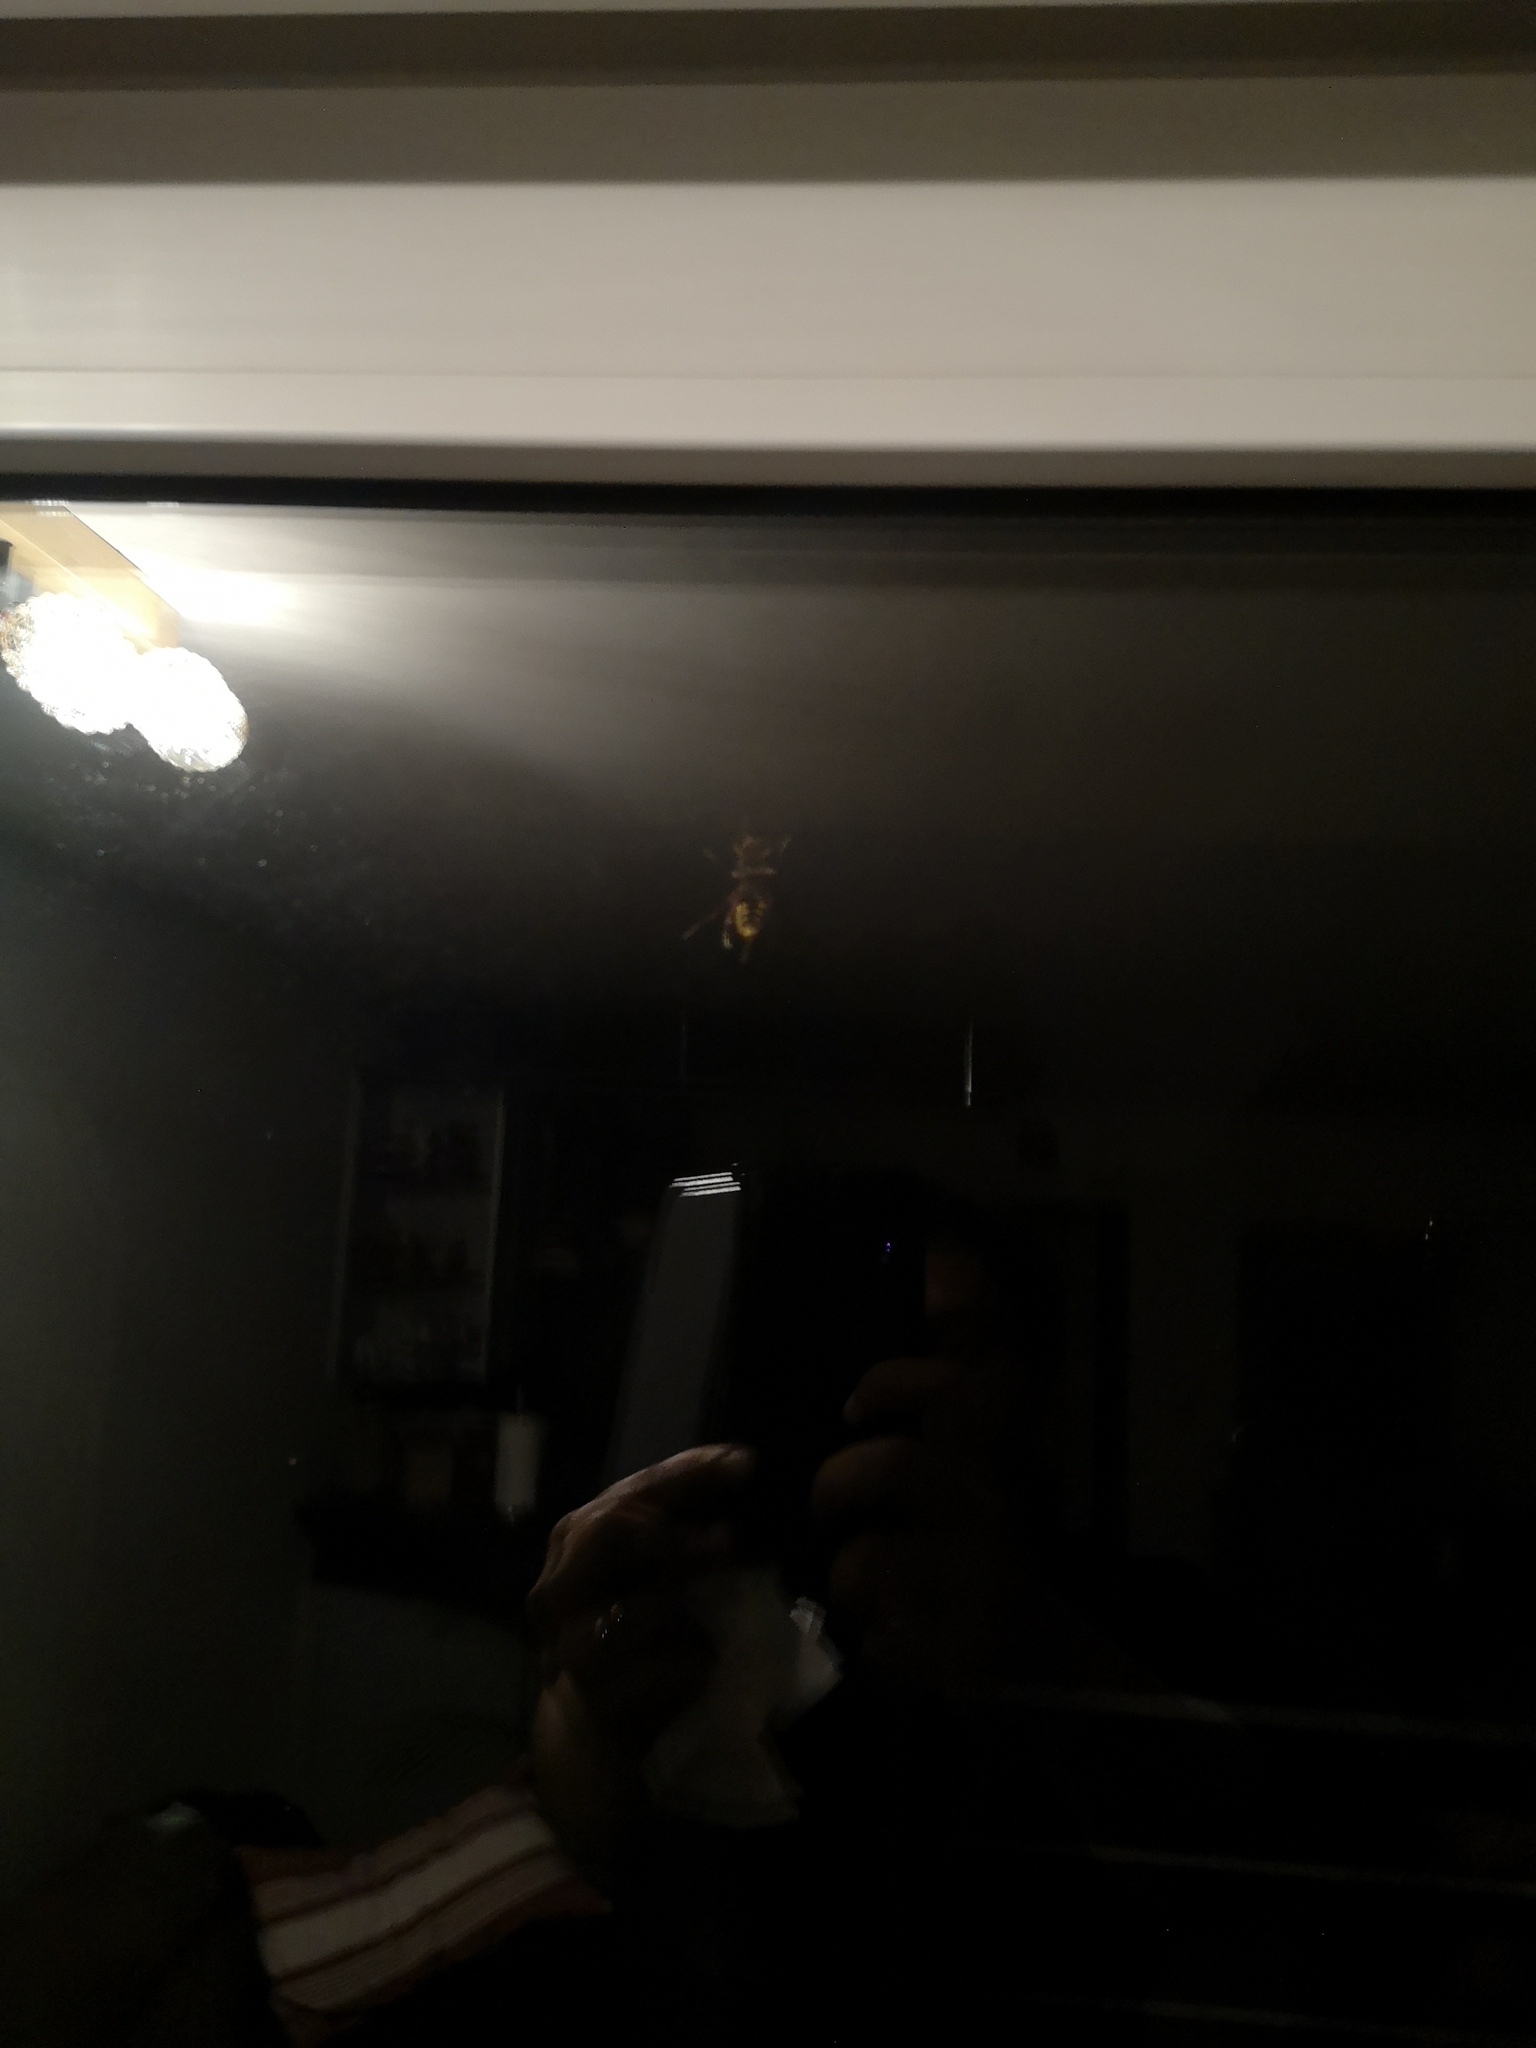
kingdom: Animalia
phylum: Arthropoda
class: Insecta
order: Hymenoptera
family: Vespidae
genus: Vespa
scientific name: Vespa crabro
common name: Hornet
